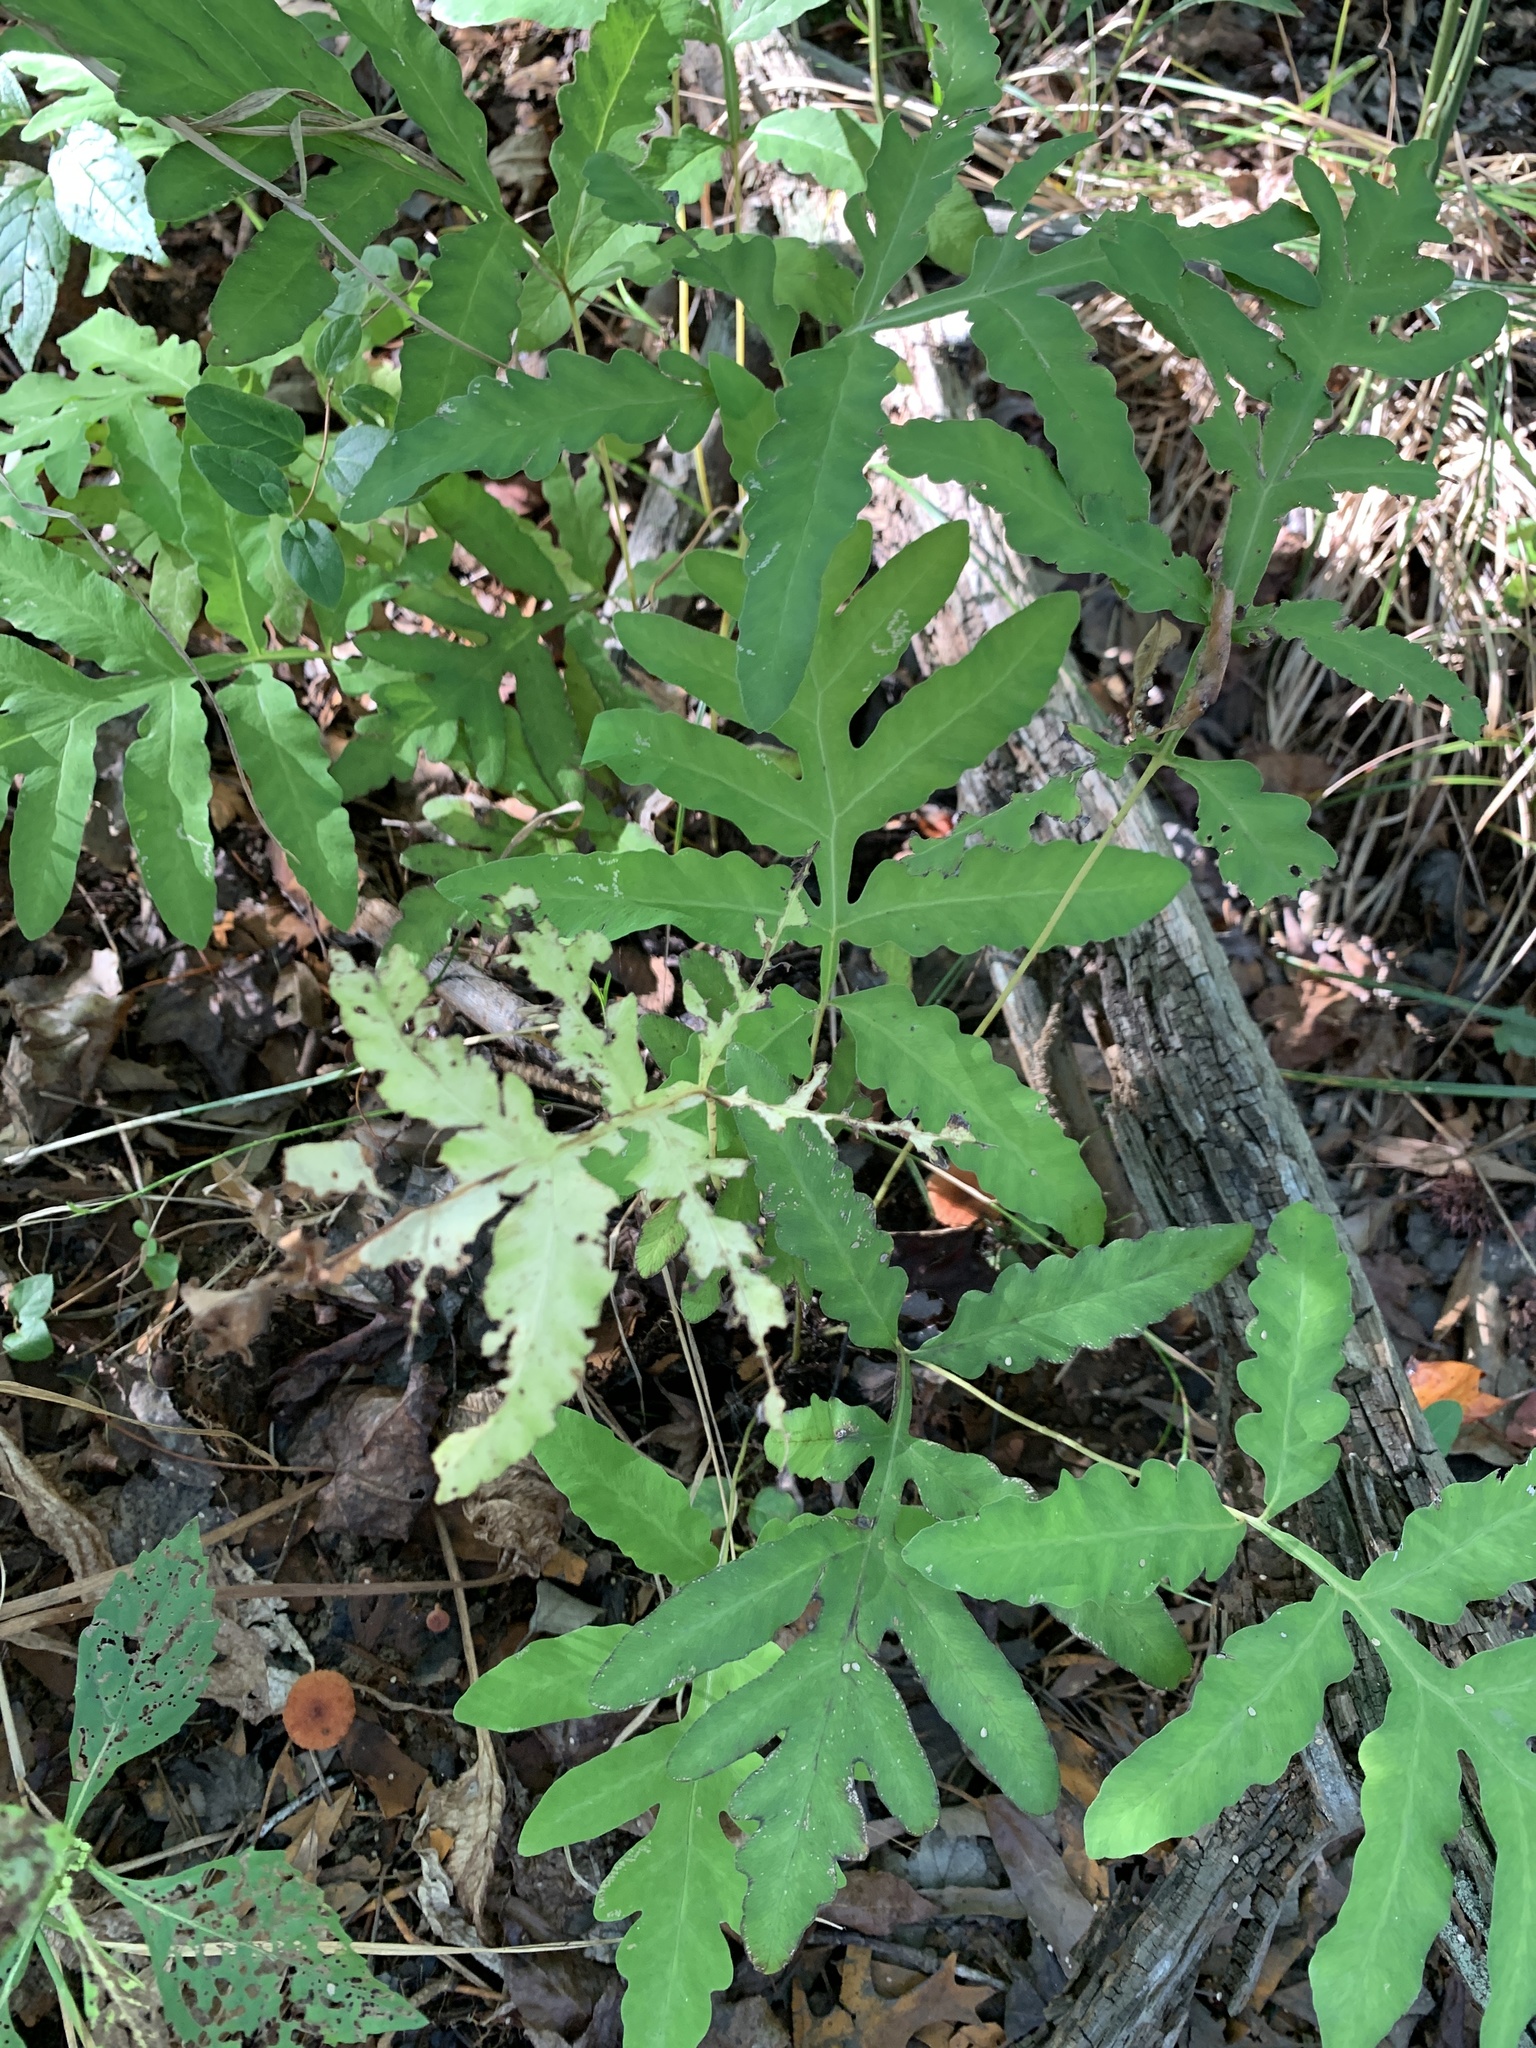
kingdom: Plantae
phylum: Tracheophyta
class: Polypodiopsida
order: Polypodiales
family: Onocleaceae
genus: Onoclea
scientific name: Onoclea sensibilis
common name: Sensitive fern
